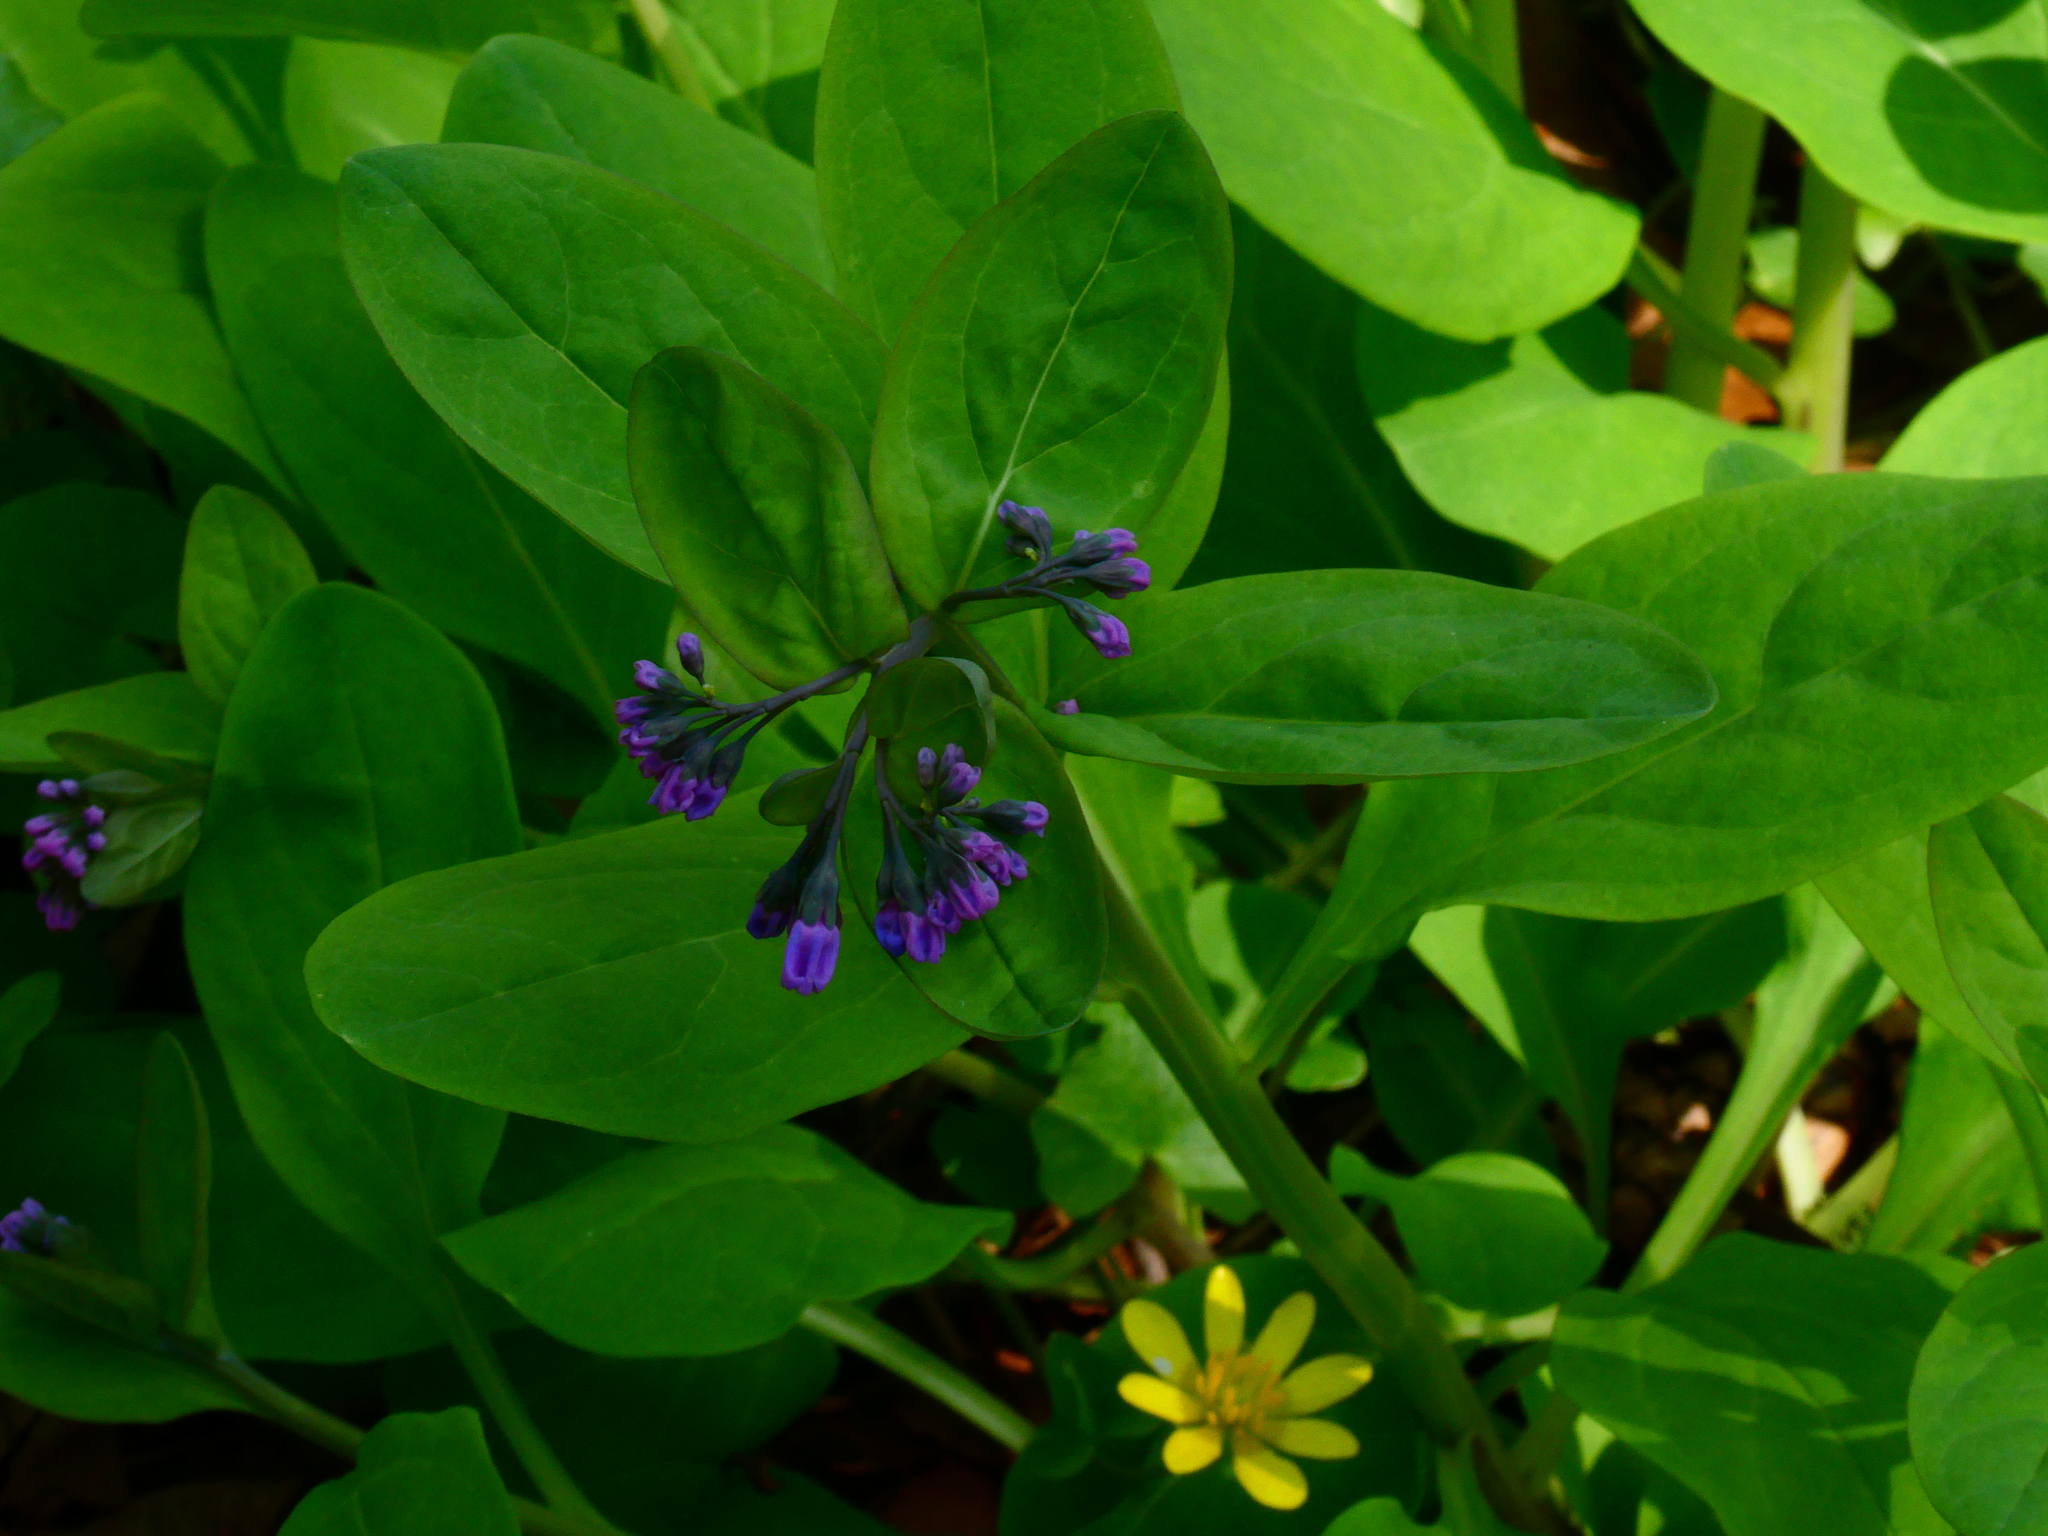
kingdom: Plantae
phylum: Tracheophyta
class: Magnoliopsida
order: Boraginales
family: Boraginaceae
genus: Mertensia
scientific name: Mertensia virginica
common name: Virginia bluebells
